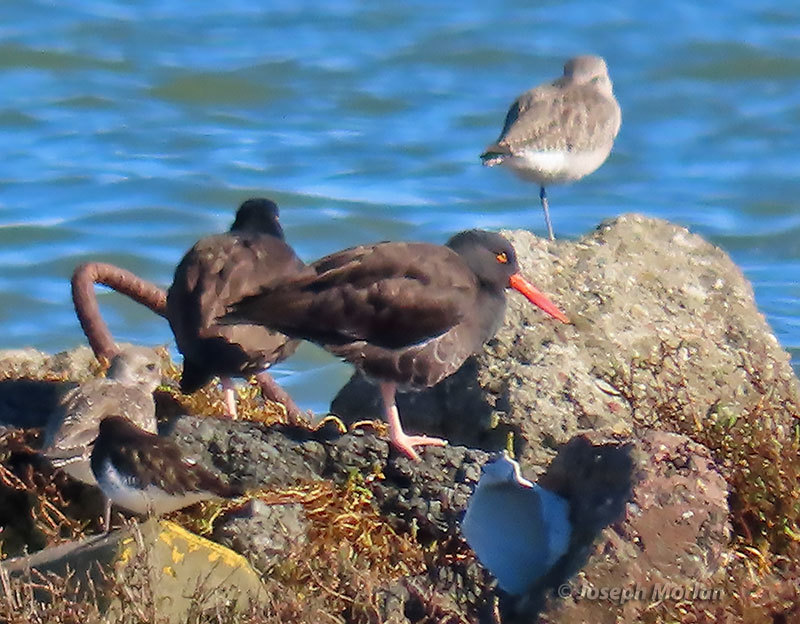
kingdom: Animalia
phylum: Chordata
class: Aves
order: Charadriiformes
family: Haematopodidae
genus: Haematopus
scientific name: Haematopus bachmani
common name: Black oystercatcher
